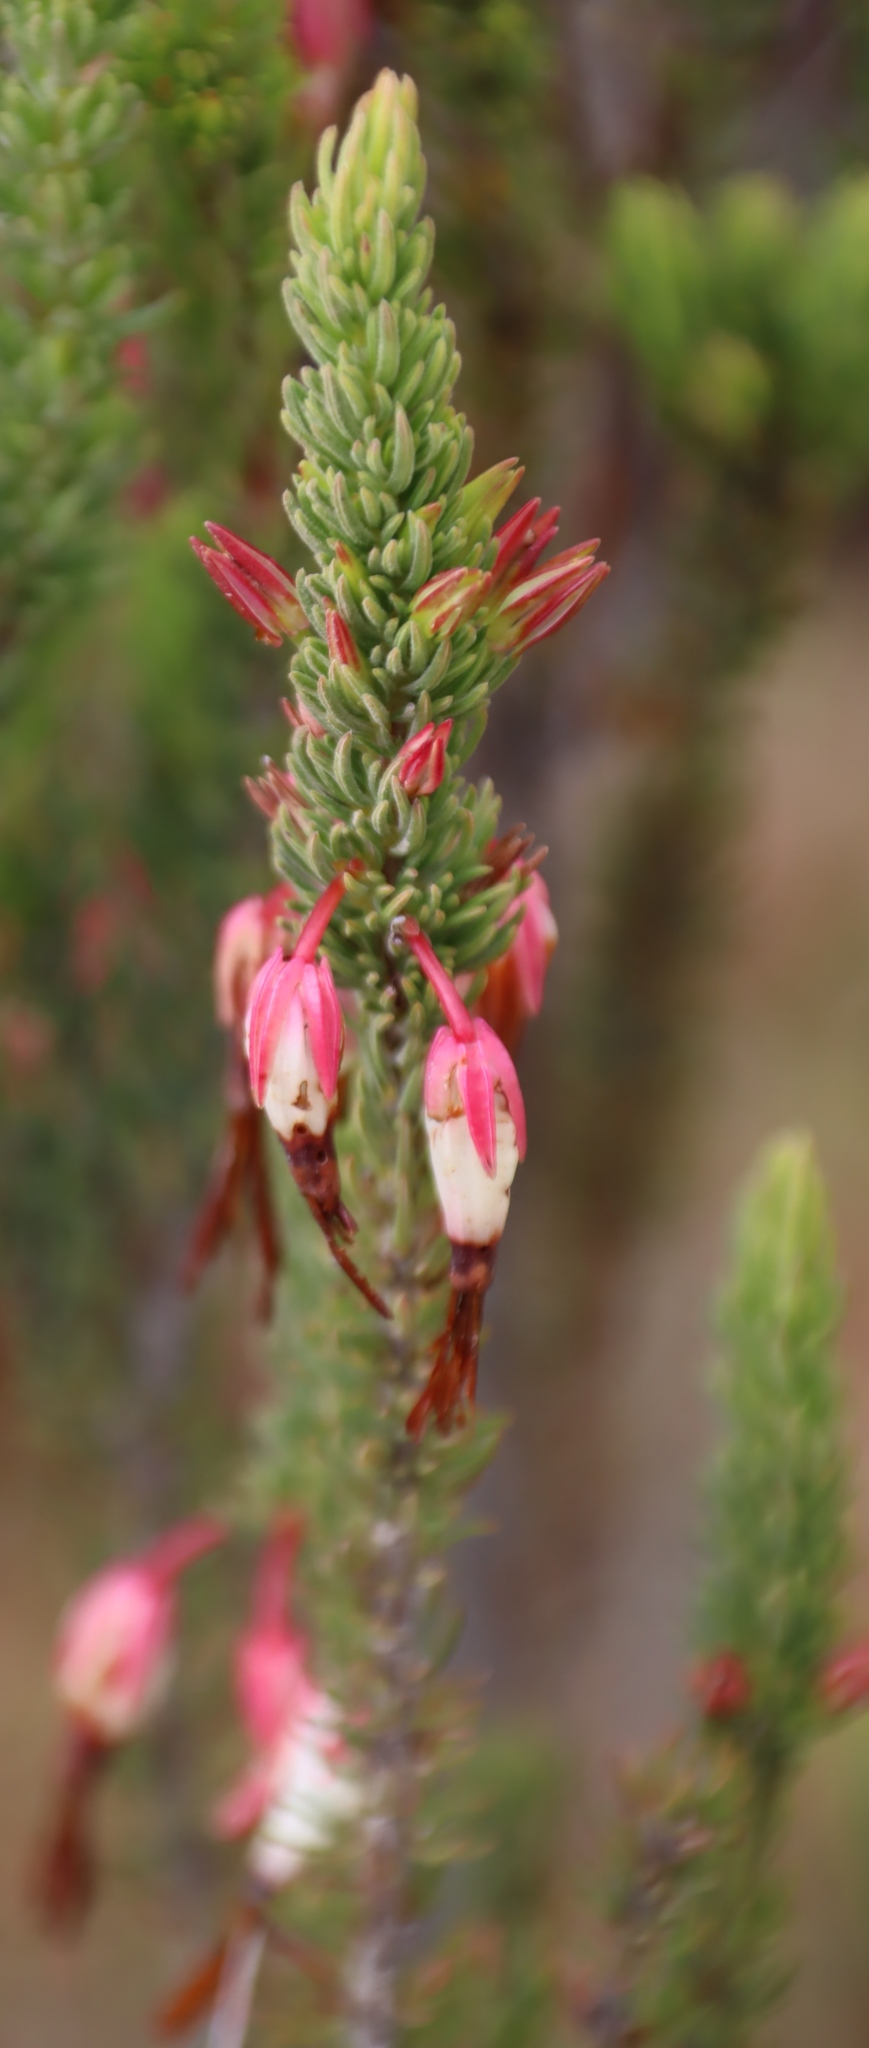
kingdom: Plantae
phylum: Tracheophyta
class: Magnoliopsida
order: Ericales
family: Ericaceae
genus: Erica
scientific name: Erica plukenetii
